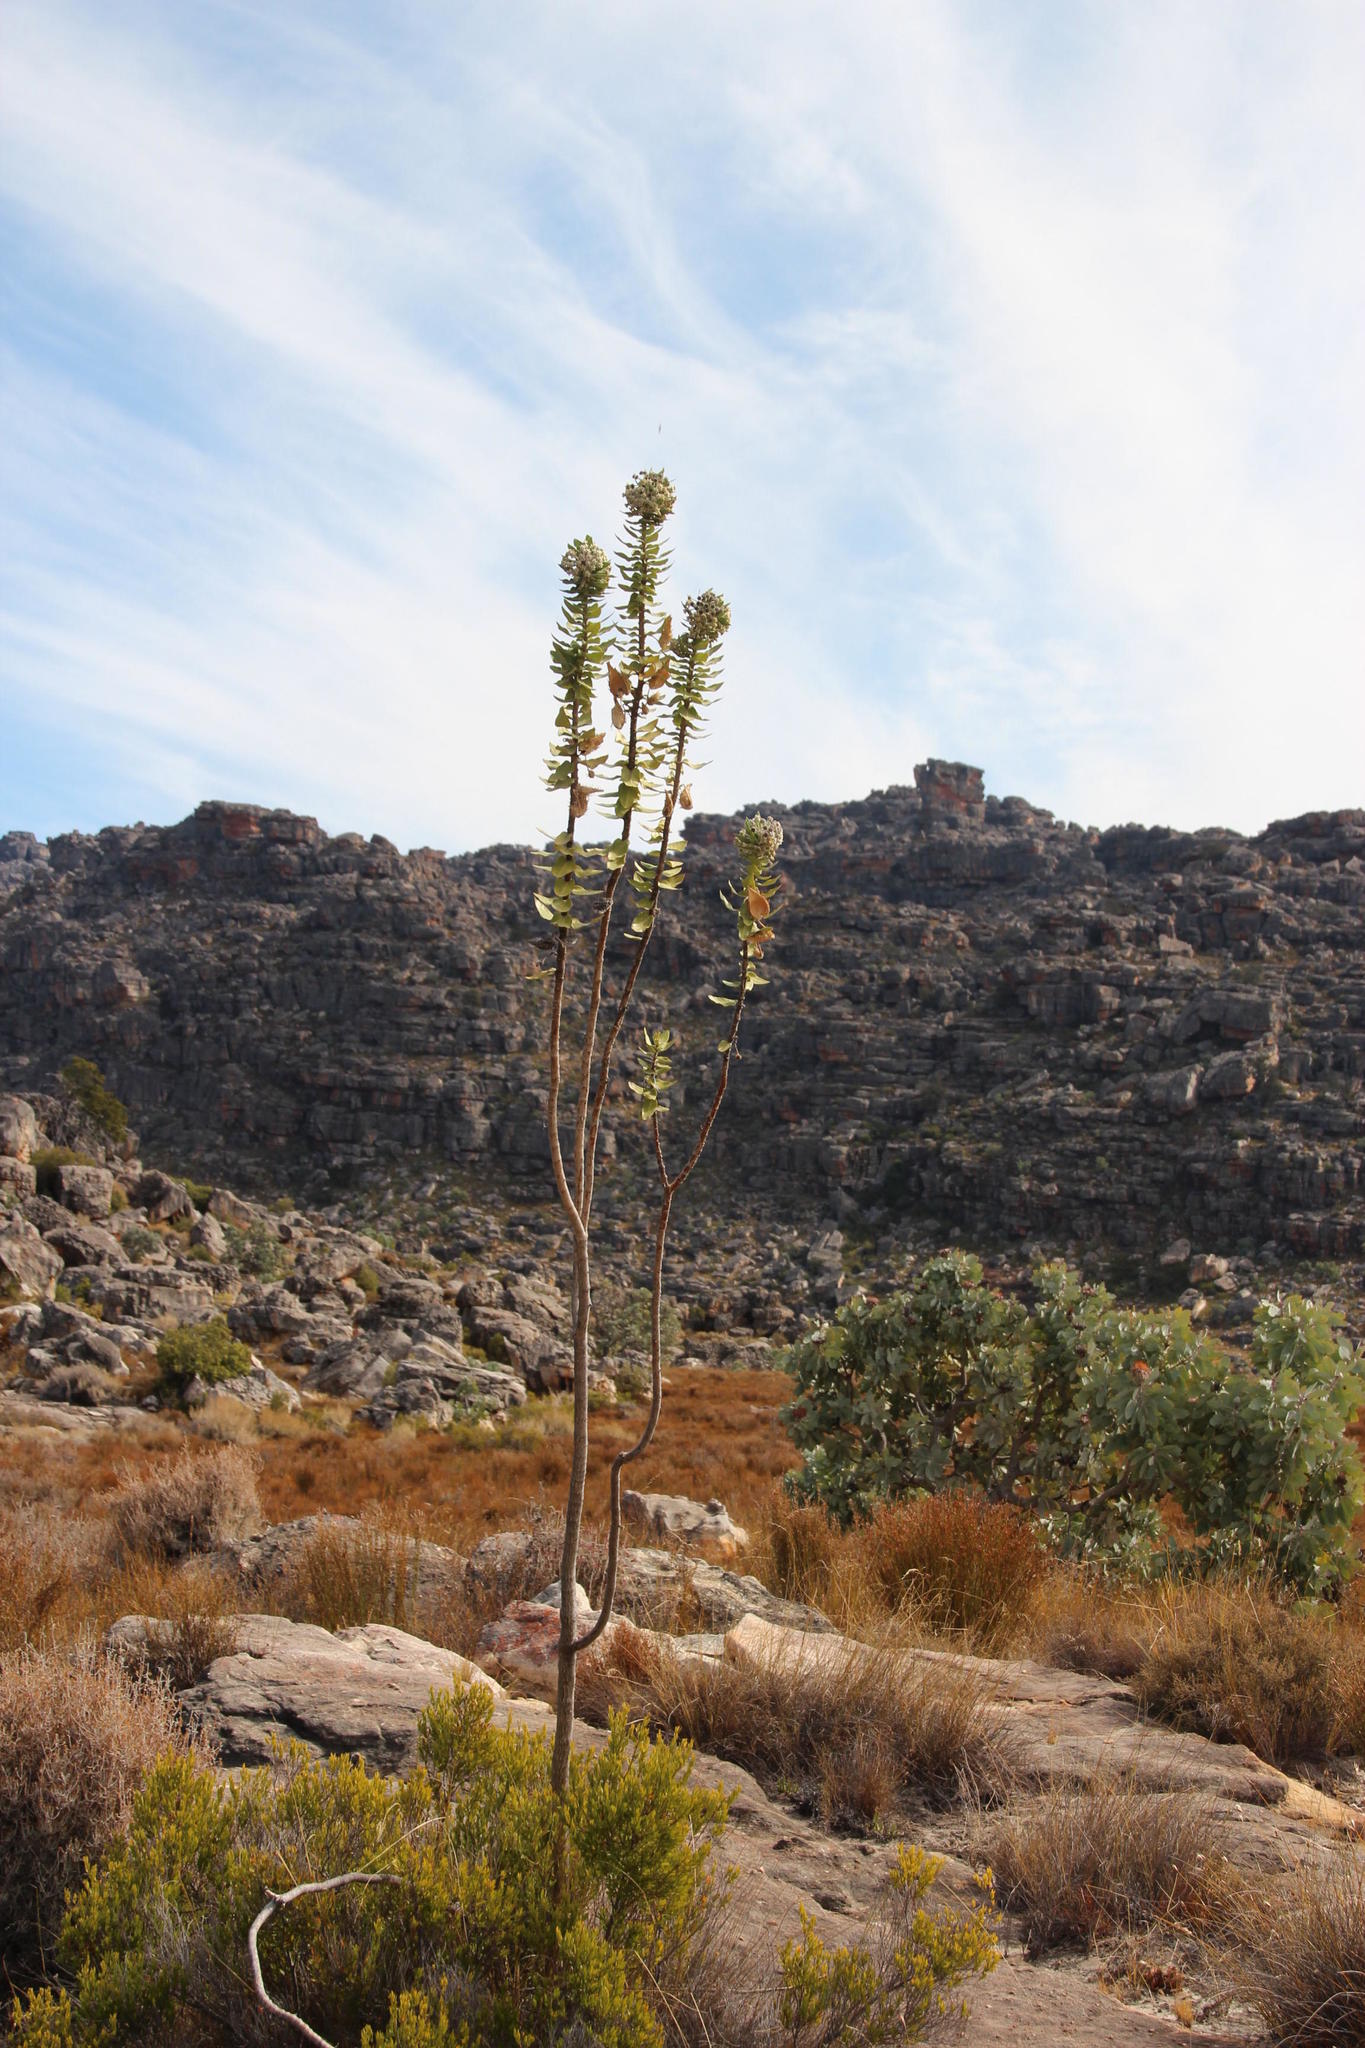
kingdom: Plantae
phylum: Tracheophyta
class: Magnoliopsida
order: Gentianales
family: Apocynaceae
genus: Gomphocarpus
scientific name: Gomphocarpus cancellatus
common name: Wild cotton
